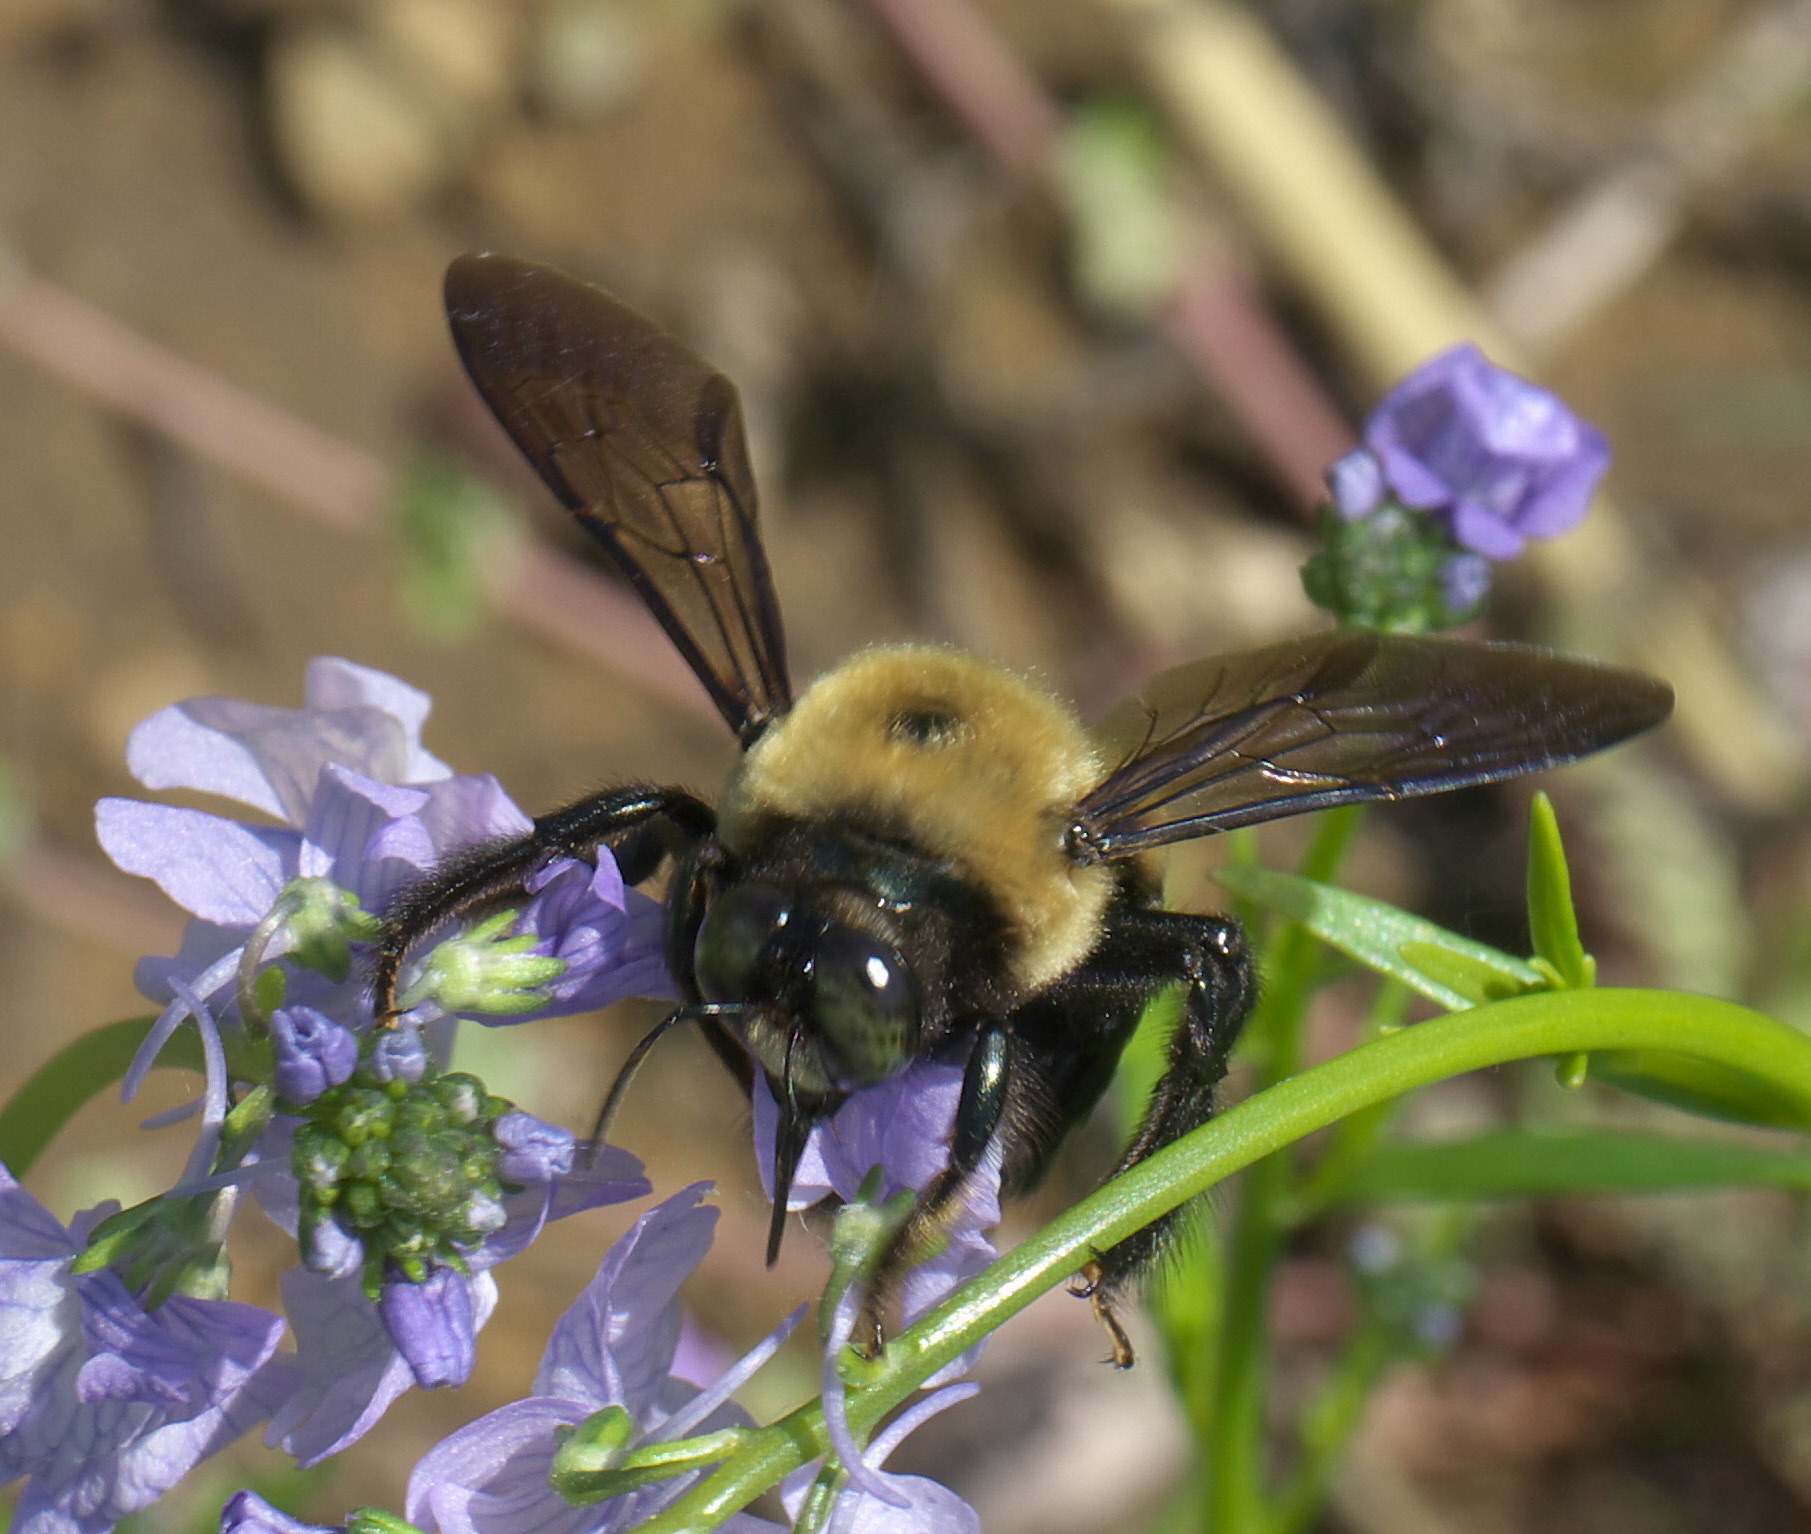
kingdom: Animalia
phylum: Arthropoda
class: Insecta
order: Hymenoptera
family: Apidae
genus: Xylocopa
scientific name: Xylocopa virginica
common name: Carpenter bee
